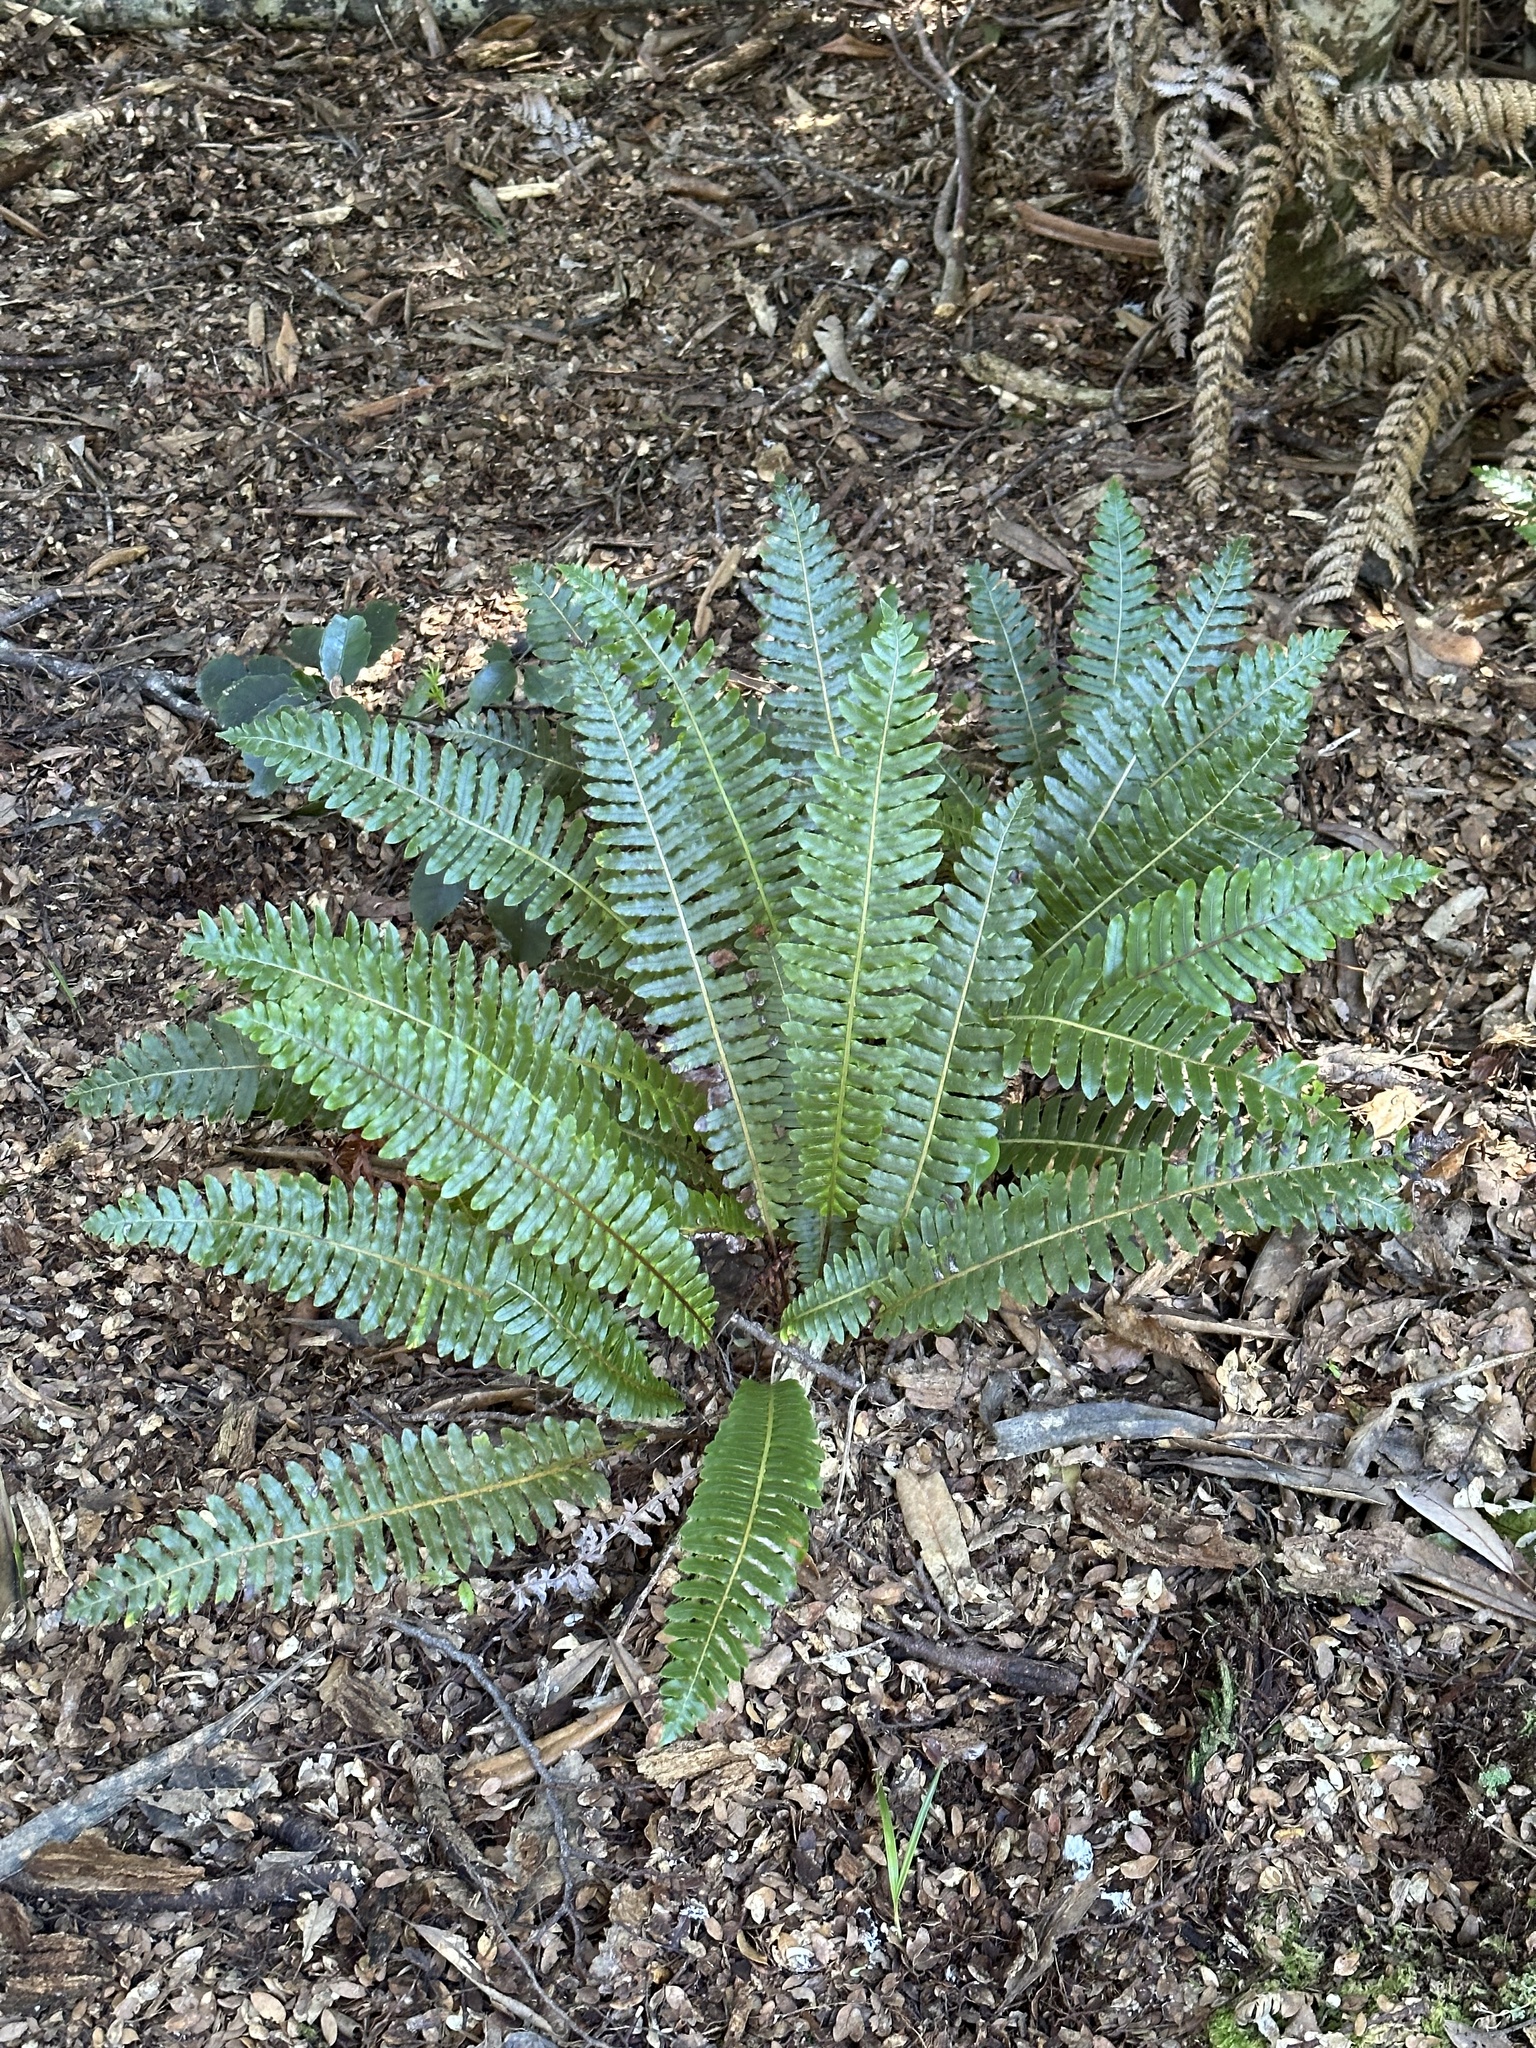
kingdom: Plantae
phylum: Tracheophyta
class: Polypodiopsida
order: Polypodiales
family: Blechnaceae
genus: Lomaria
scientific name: Lomaria discolor
